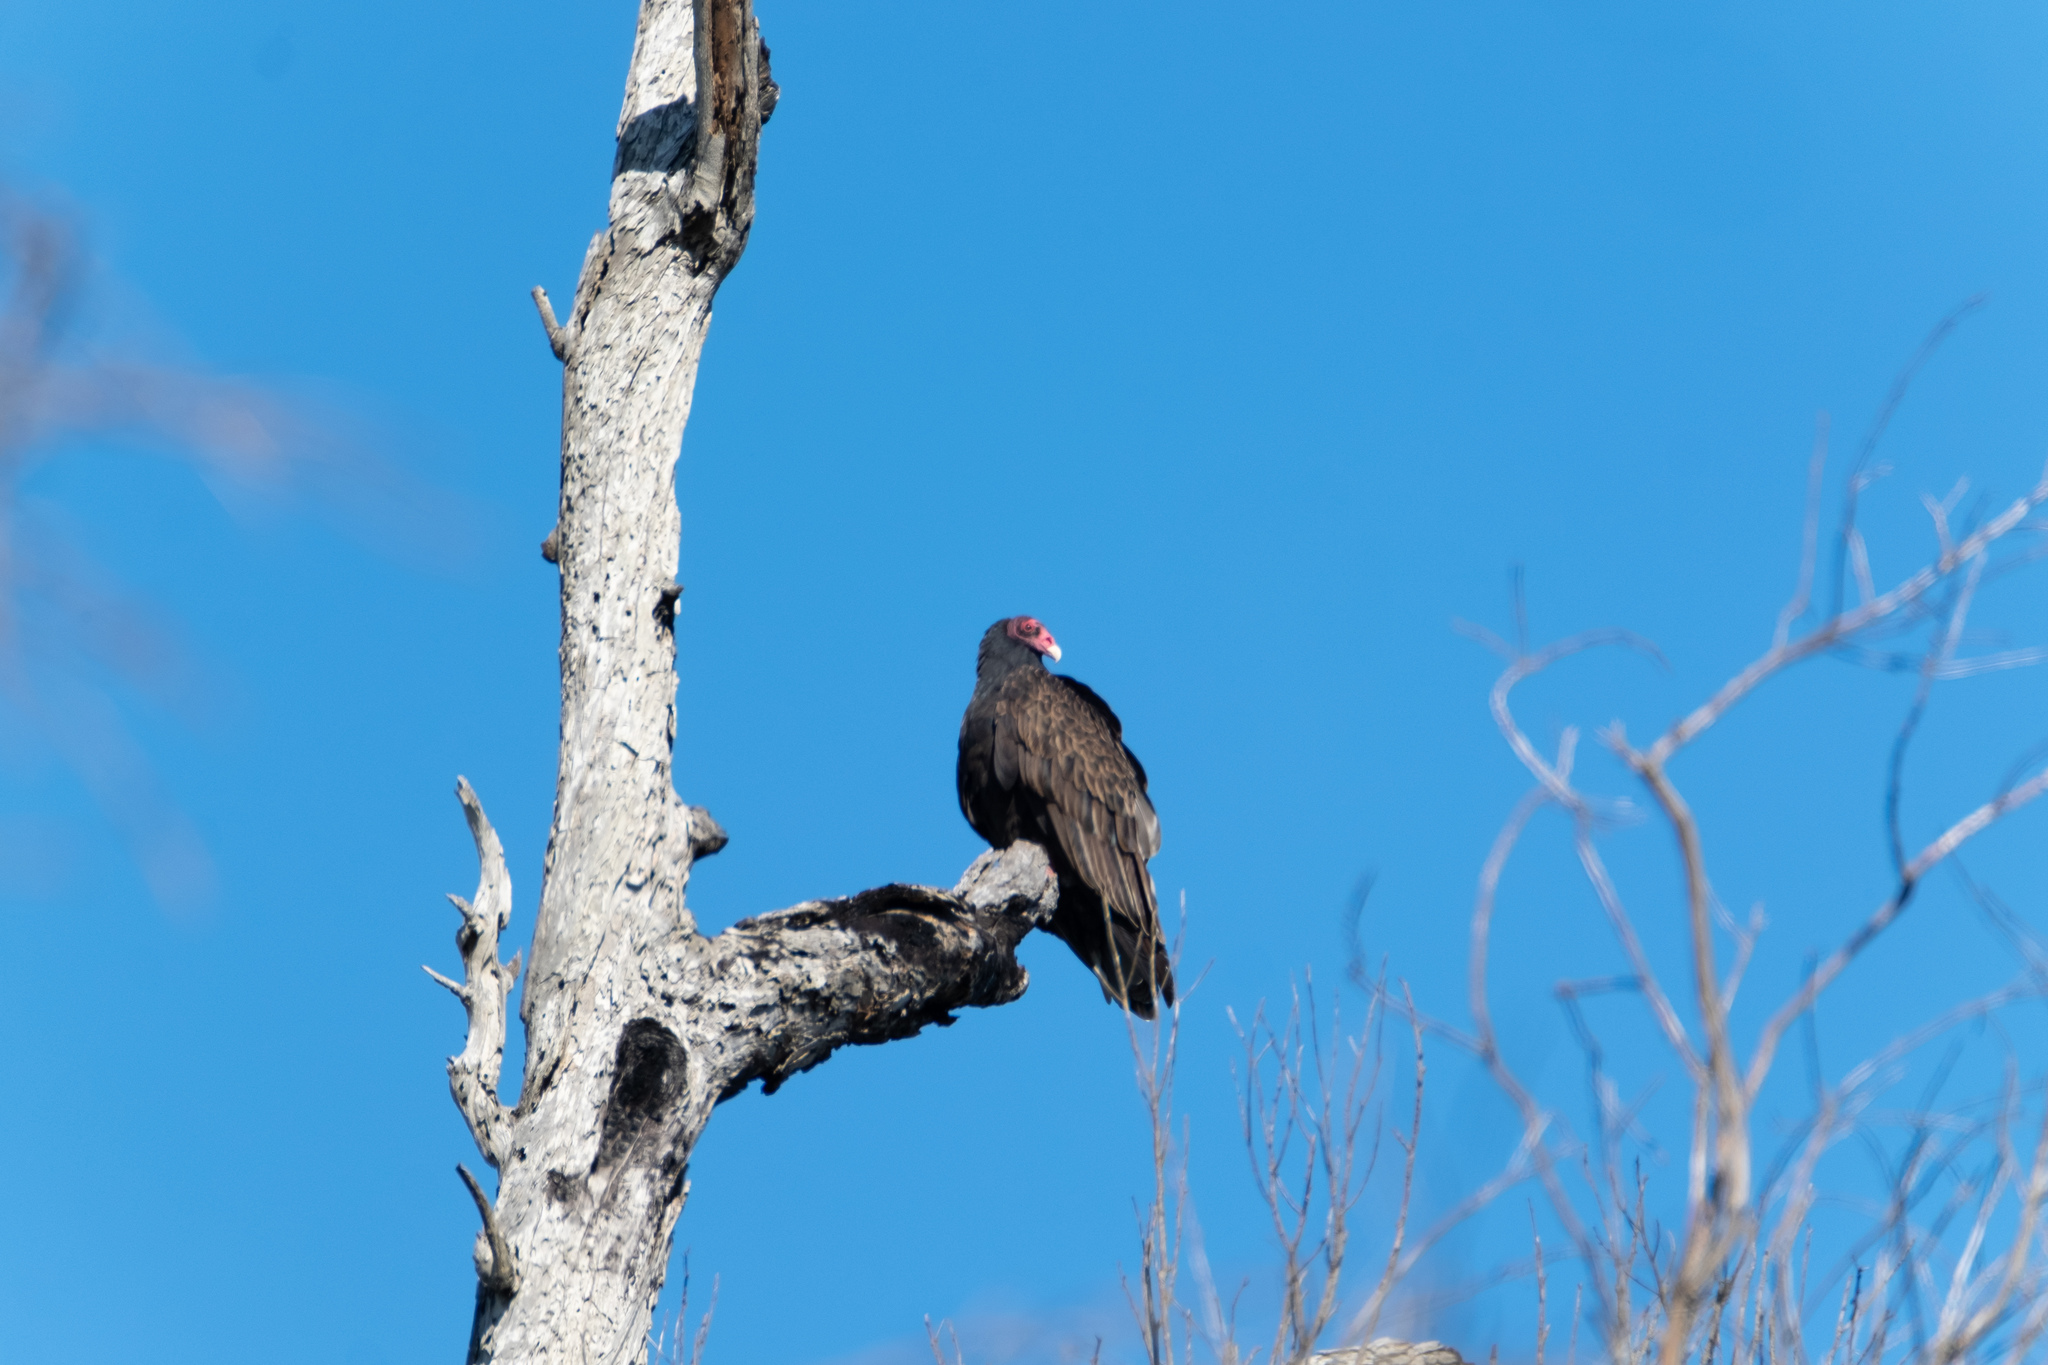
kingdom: Animalia
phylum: Chordata
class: Aves
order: Accipitriformes
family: Cathartidae
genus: Cathartes
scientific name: Cathartes aura
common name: Turkey vulture
